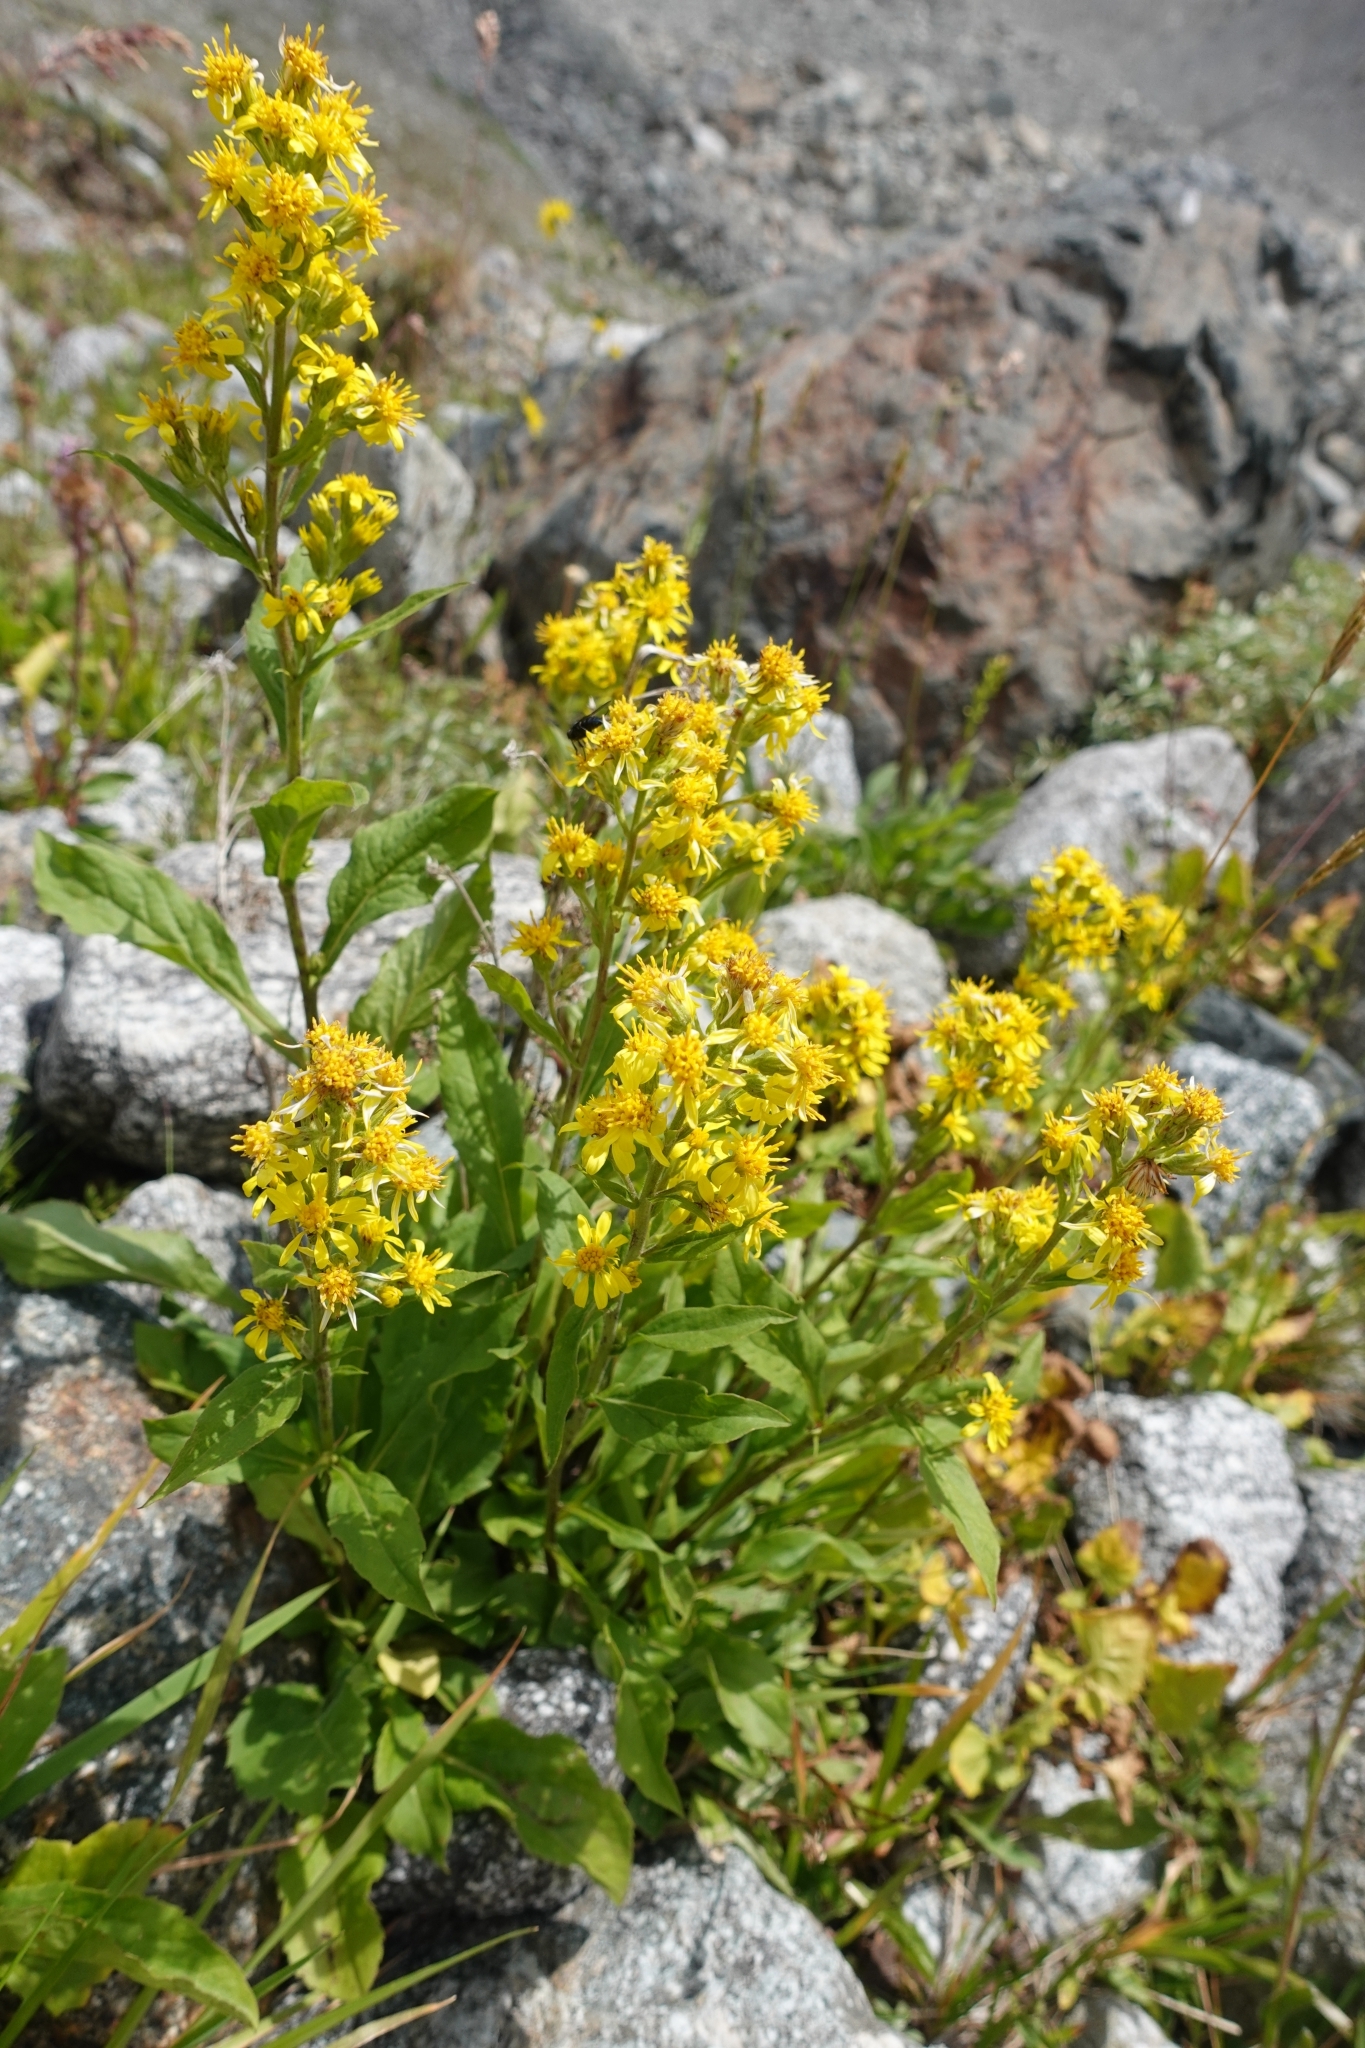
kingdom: Plantae
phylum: Tracheophyta
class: Magnoliopsida
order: Asterales
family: Asteraceae
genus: Solidago
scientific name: Solidago virgaurea
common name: Goldenrod
